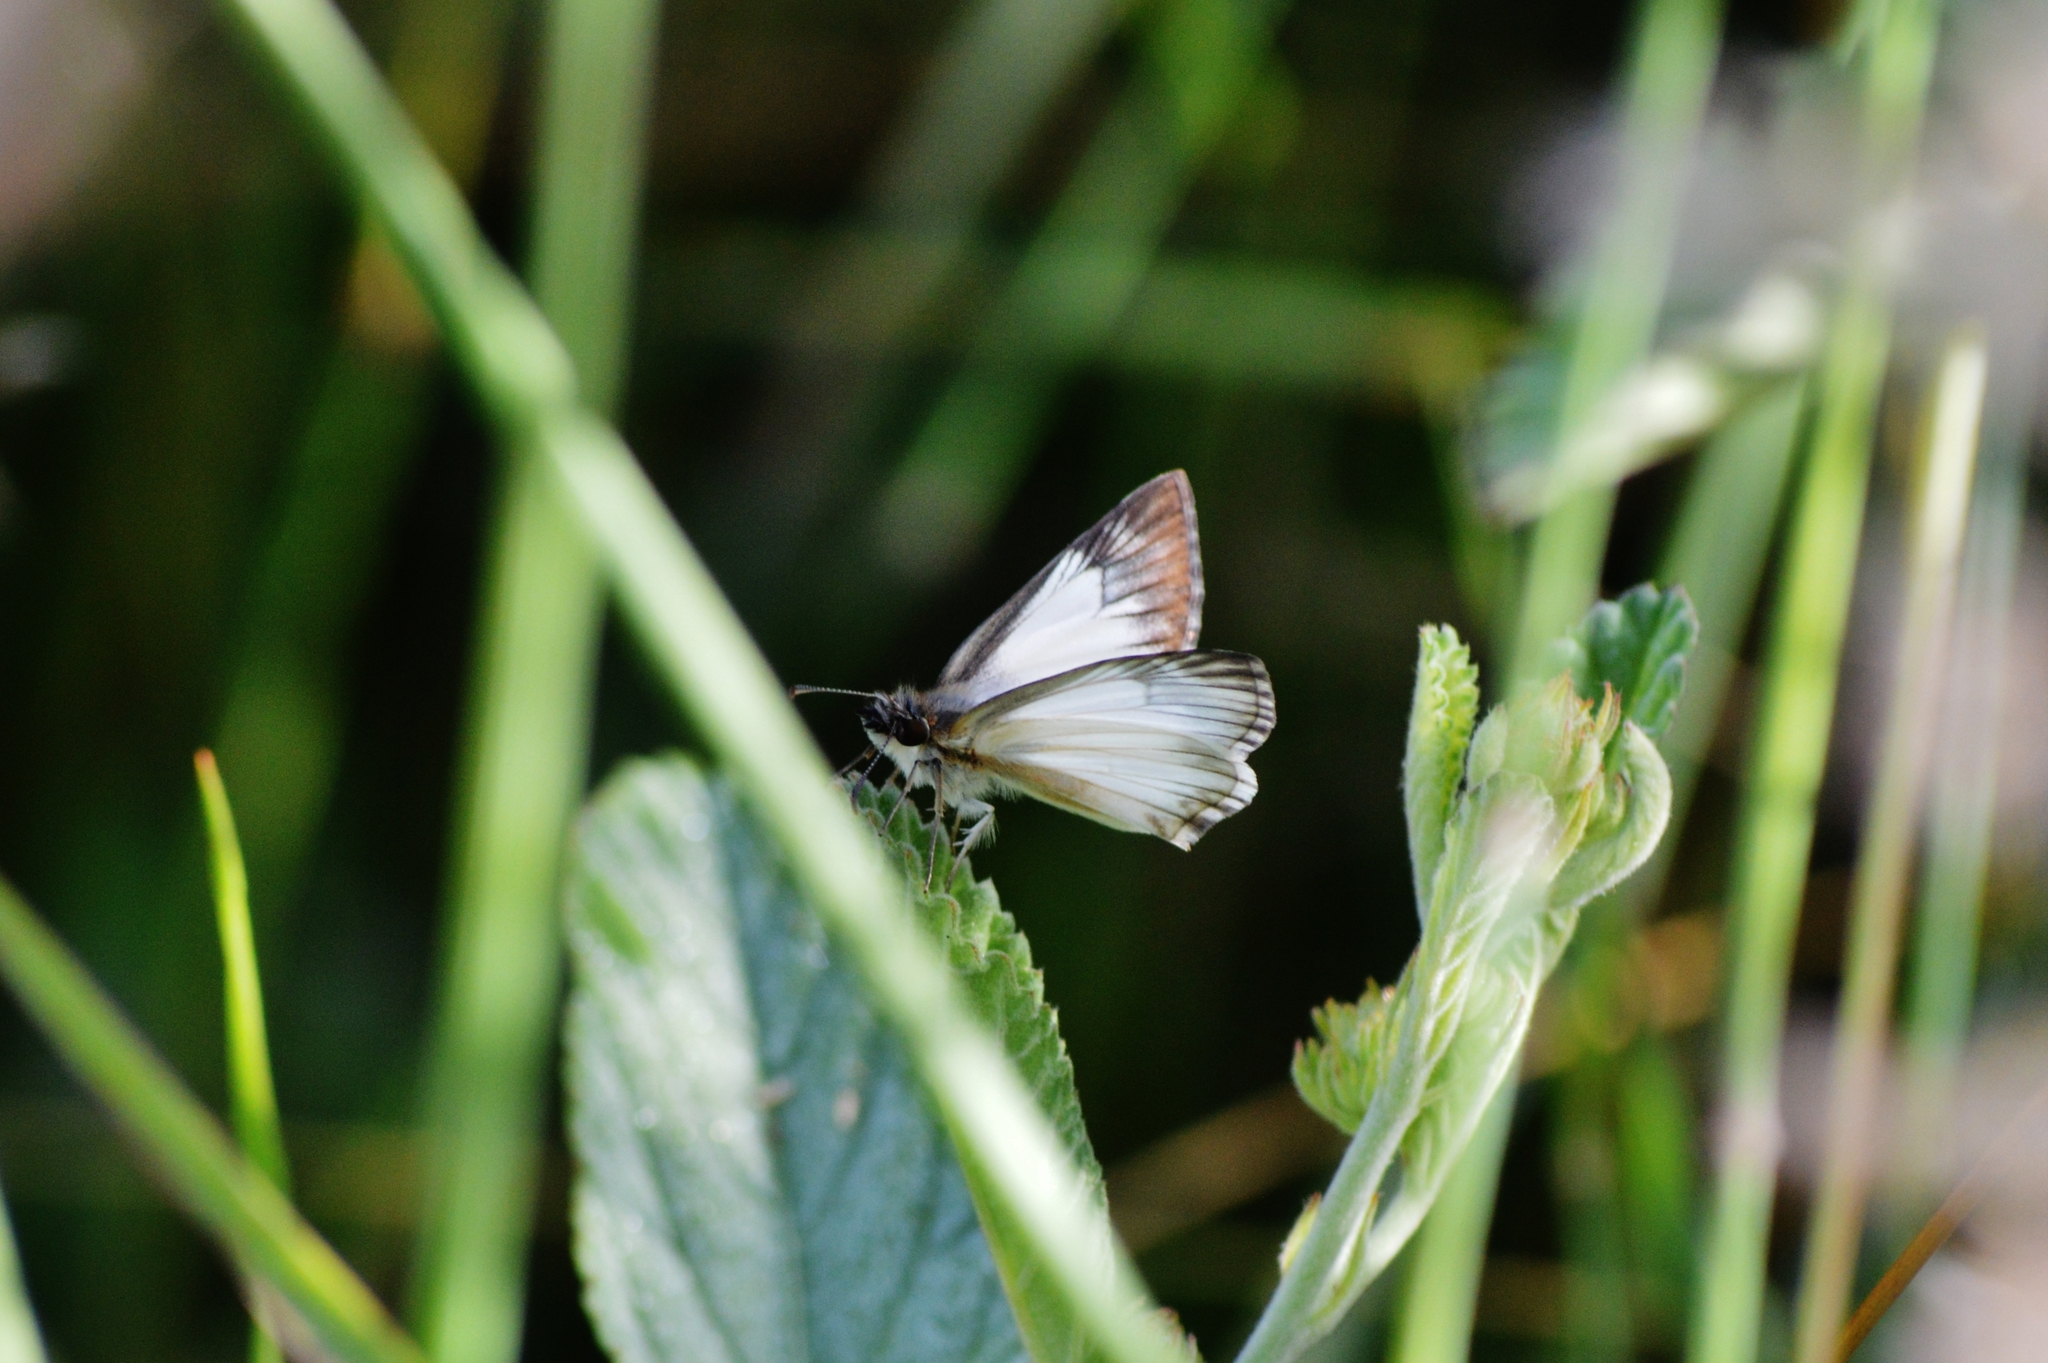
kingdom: Animalia
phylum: Arthropoda
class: Insecta
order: Lepidoptera
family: Hesperiidae
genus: Heliopetes
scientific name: Heliopetes arsalte
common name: Veined white-skipper
